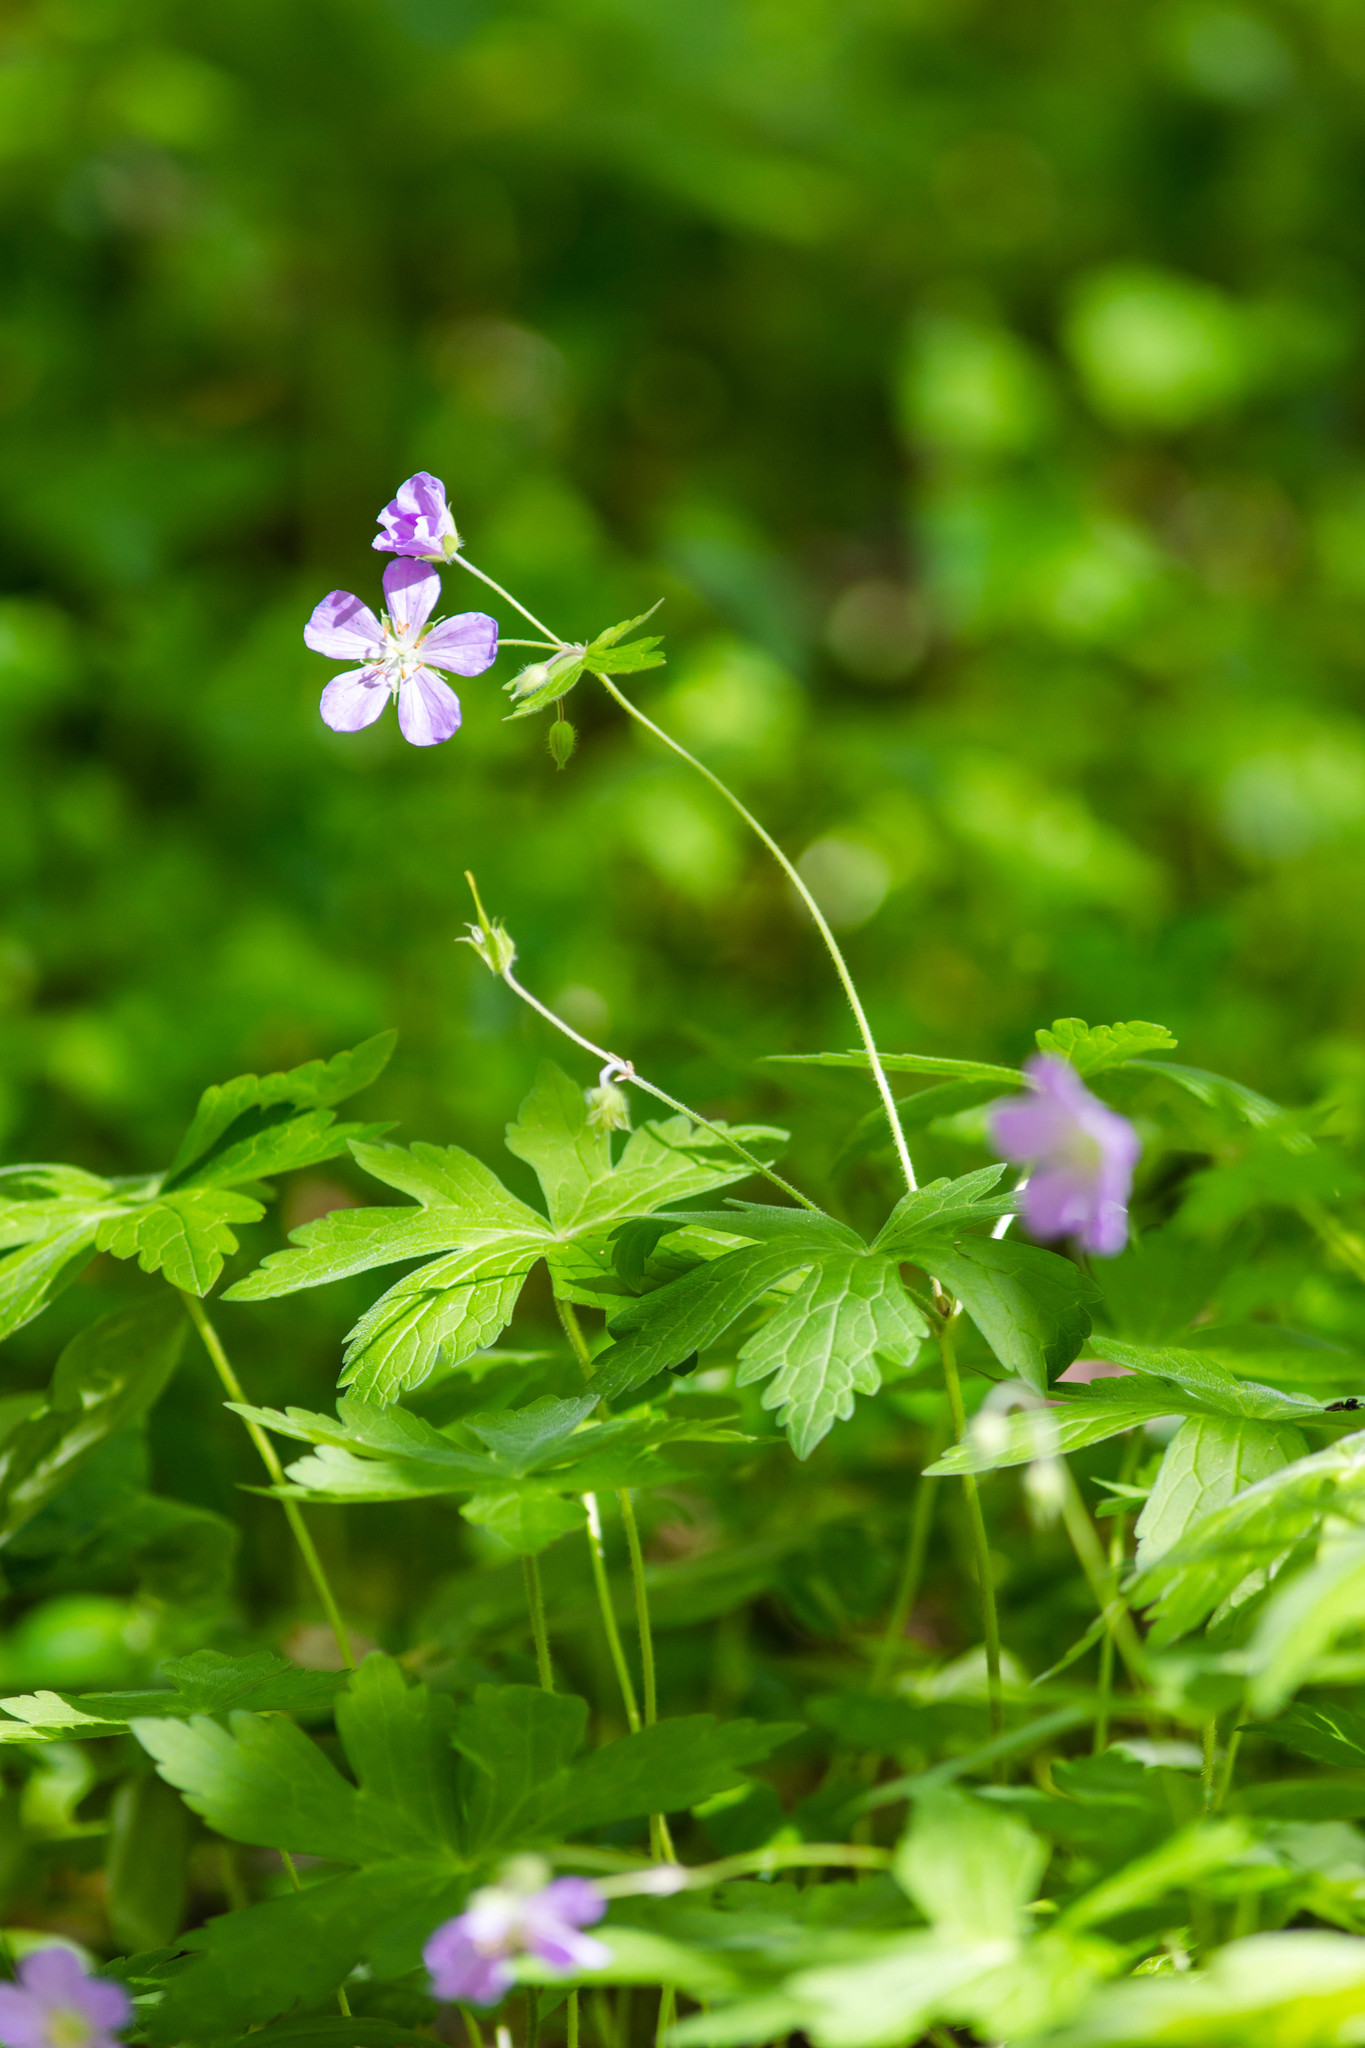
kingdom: Plantae
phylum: Tracheophyta
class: Magnoliopsida
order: Geraniales
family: Geraniaceae
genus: Geranium
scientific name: Geranium maculatum
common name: Spotted geranium
